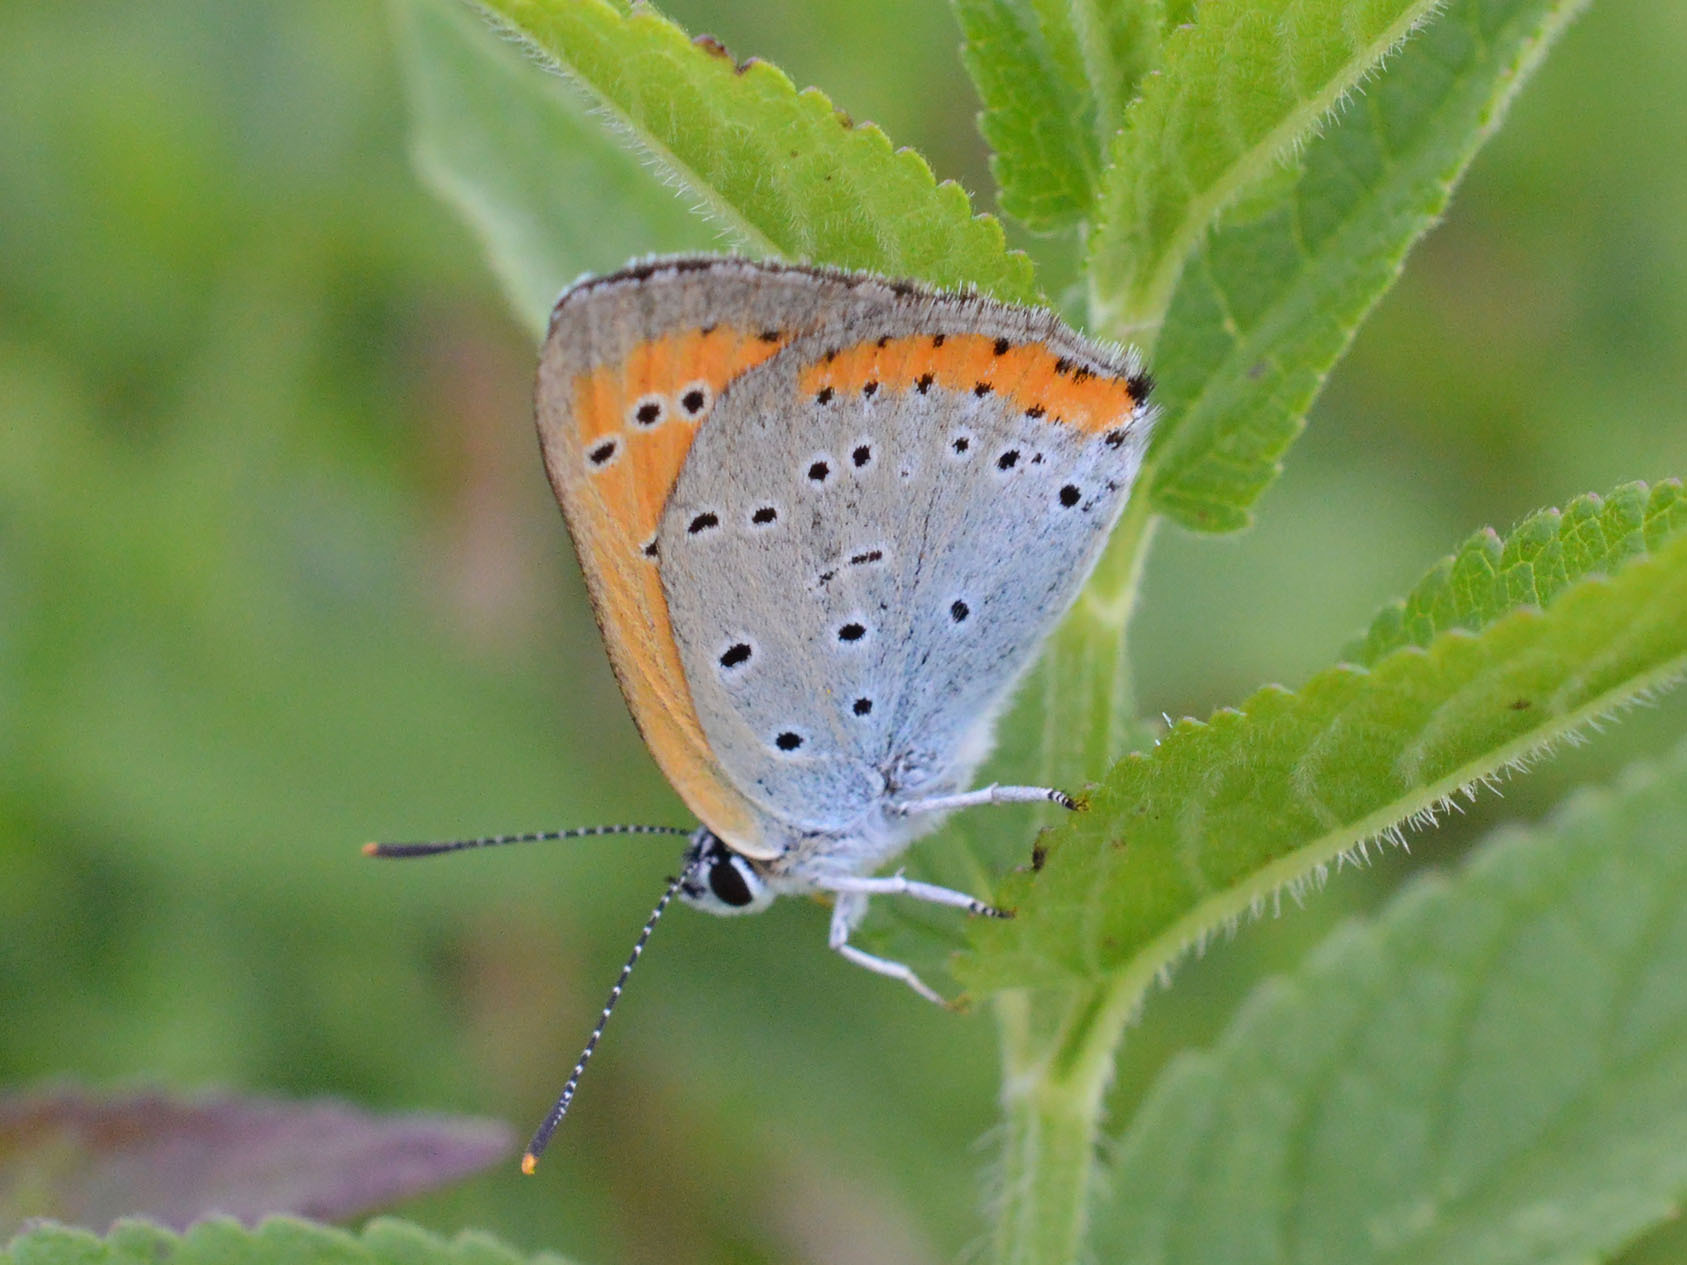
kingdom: Animalia
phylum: Arthropoda
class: Insecta
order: Lepidoptera
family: Lycaenidae
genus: Lycaena
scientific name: Lycaena dispar
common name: Large copper
